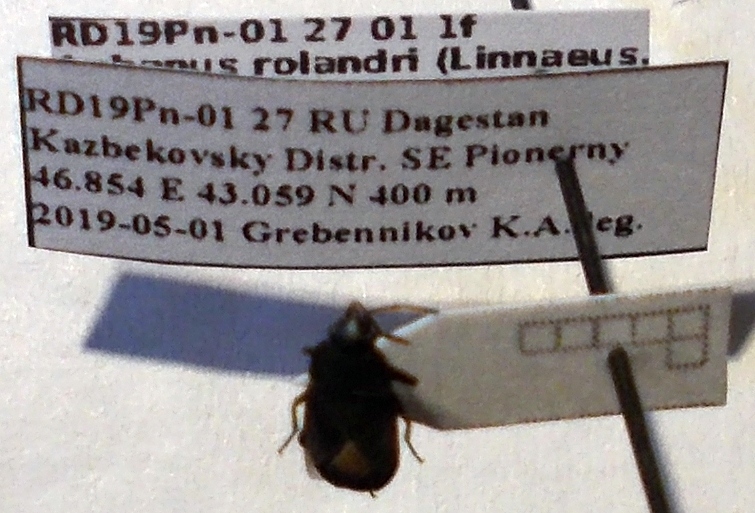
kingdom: Animalia
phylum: Arthropoda
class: Insecta
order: Hemiptera
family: Rhyparochromidae
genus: Aphanus
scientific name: Aphanus rolandri
